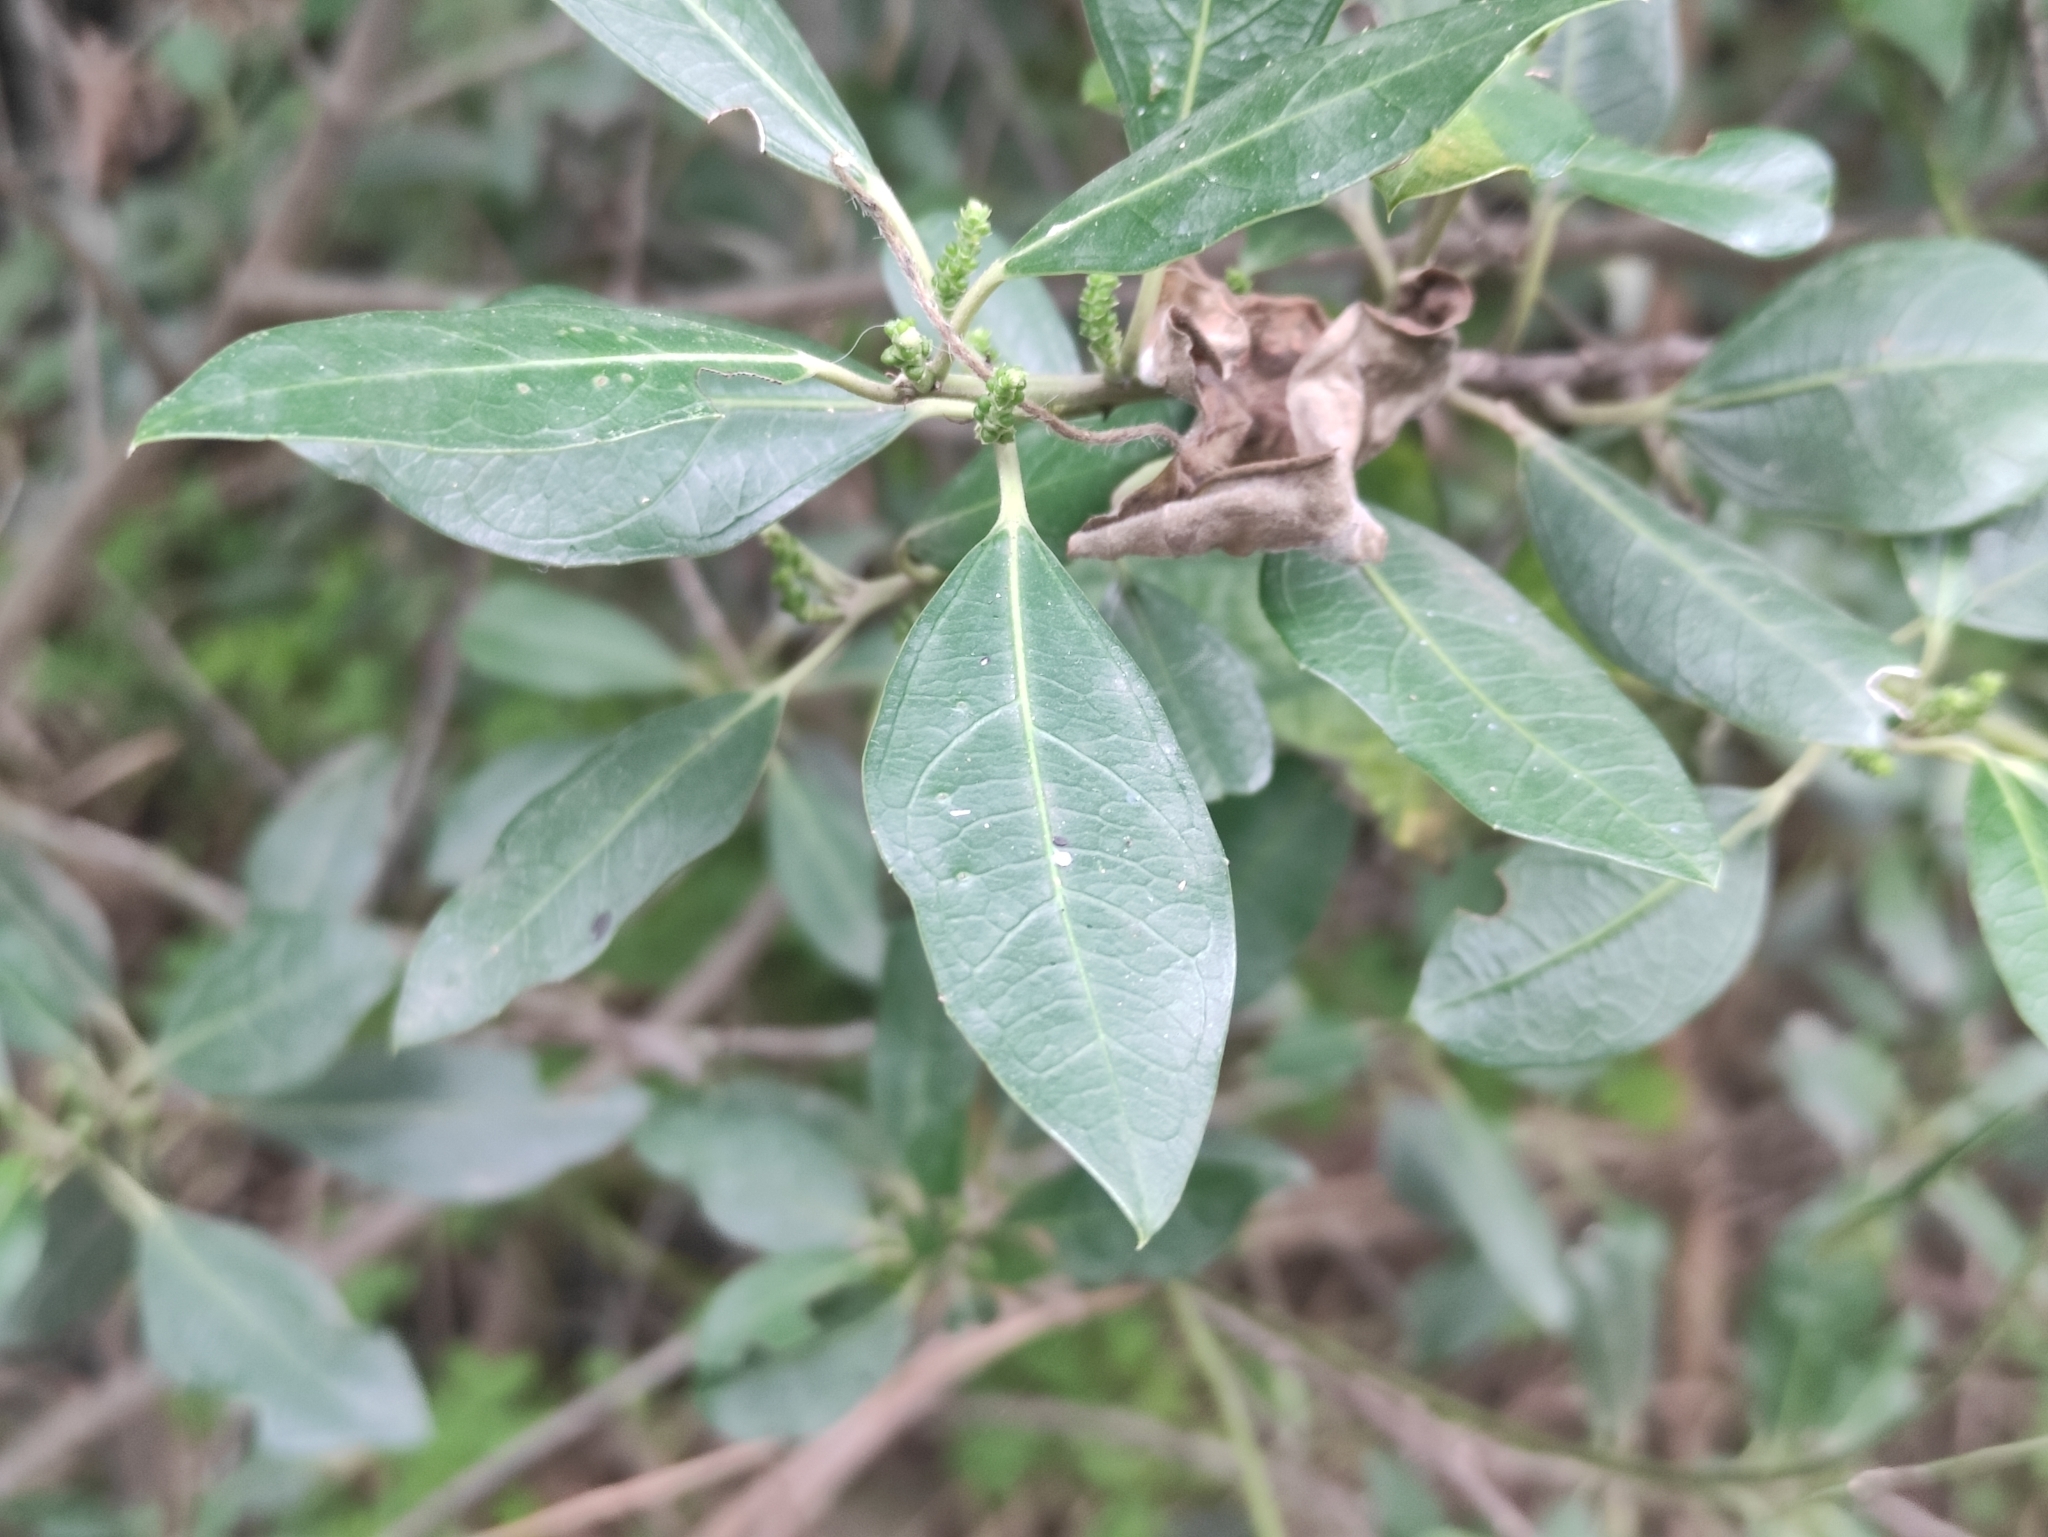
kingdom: Plantae
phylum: Tracheophyta
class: Magnoliopsida
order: Rosales
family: Rhamnaceae
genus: Rhamnus
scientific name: Rhamnus alaternus
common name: Mediterranean buckthorn
